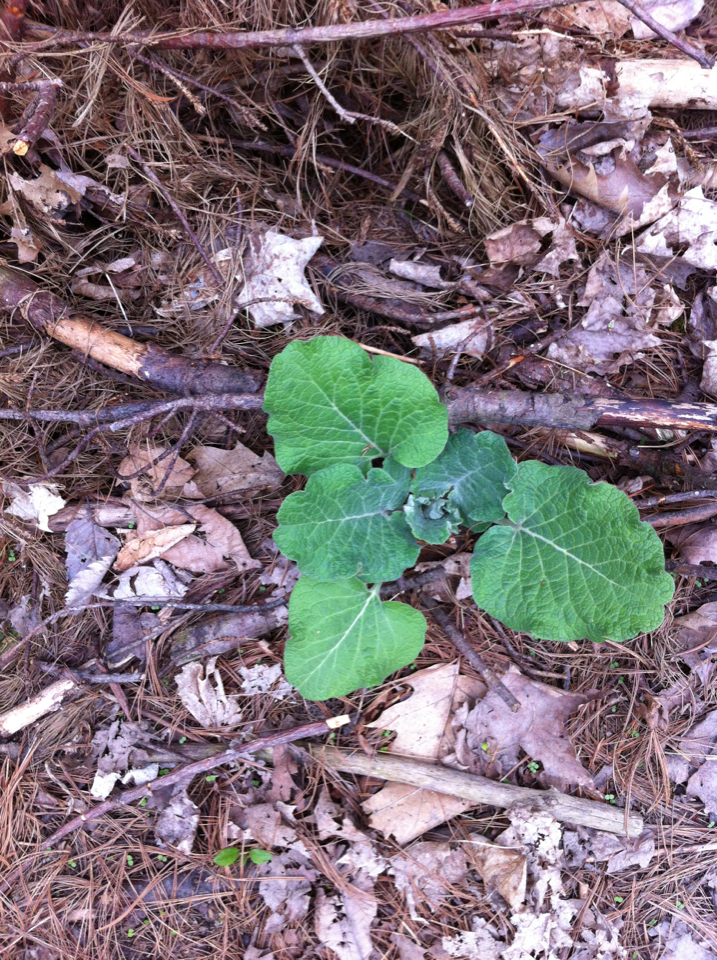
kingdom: Plantae
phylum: Tracheophyta
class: Magnoliopsida
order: Asterales
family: Asteraceae
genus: Arctium
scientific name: Arctium
